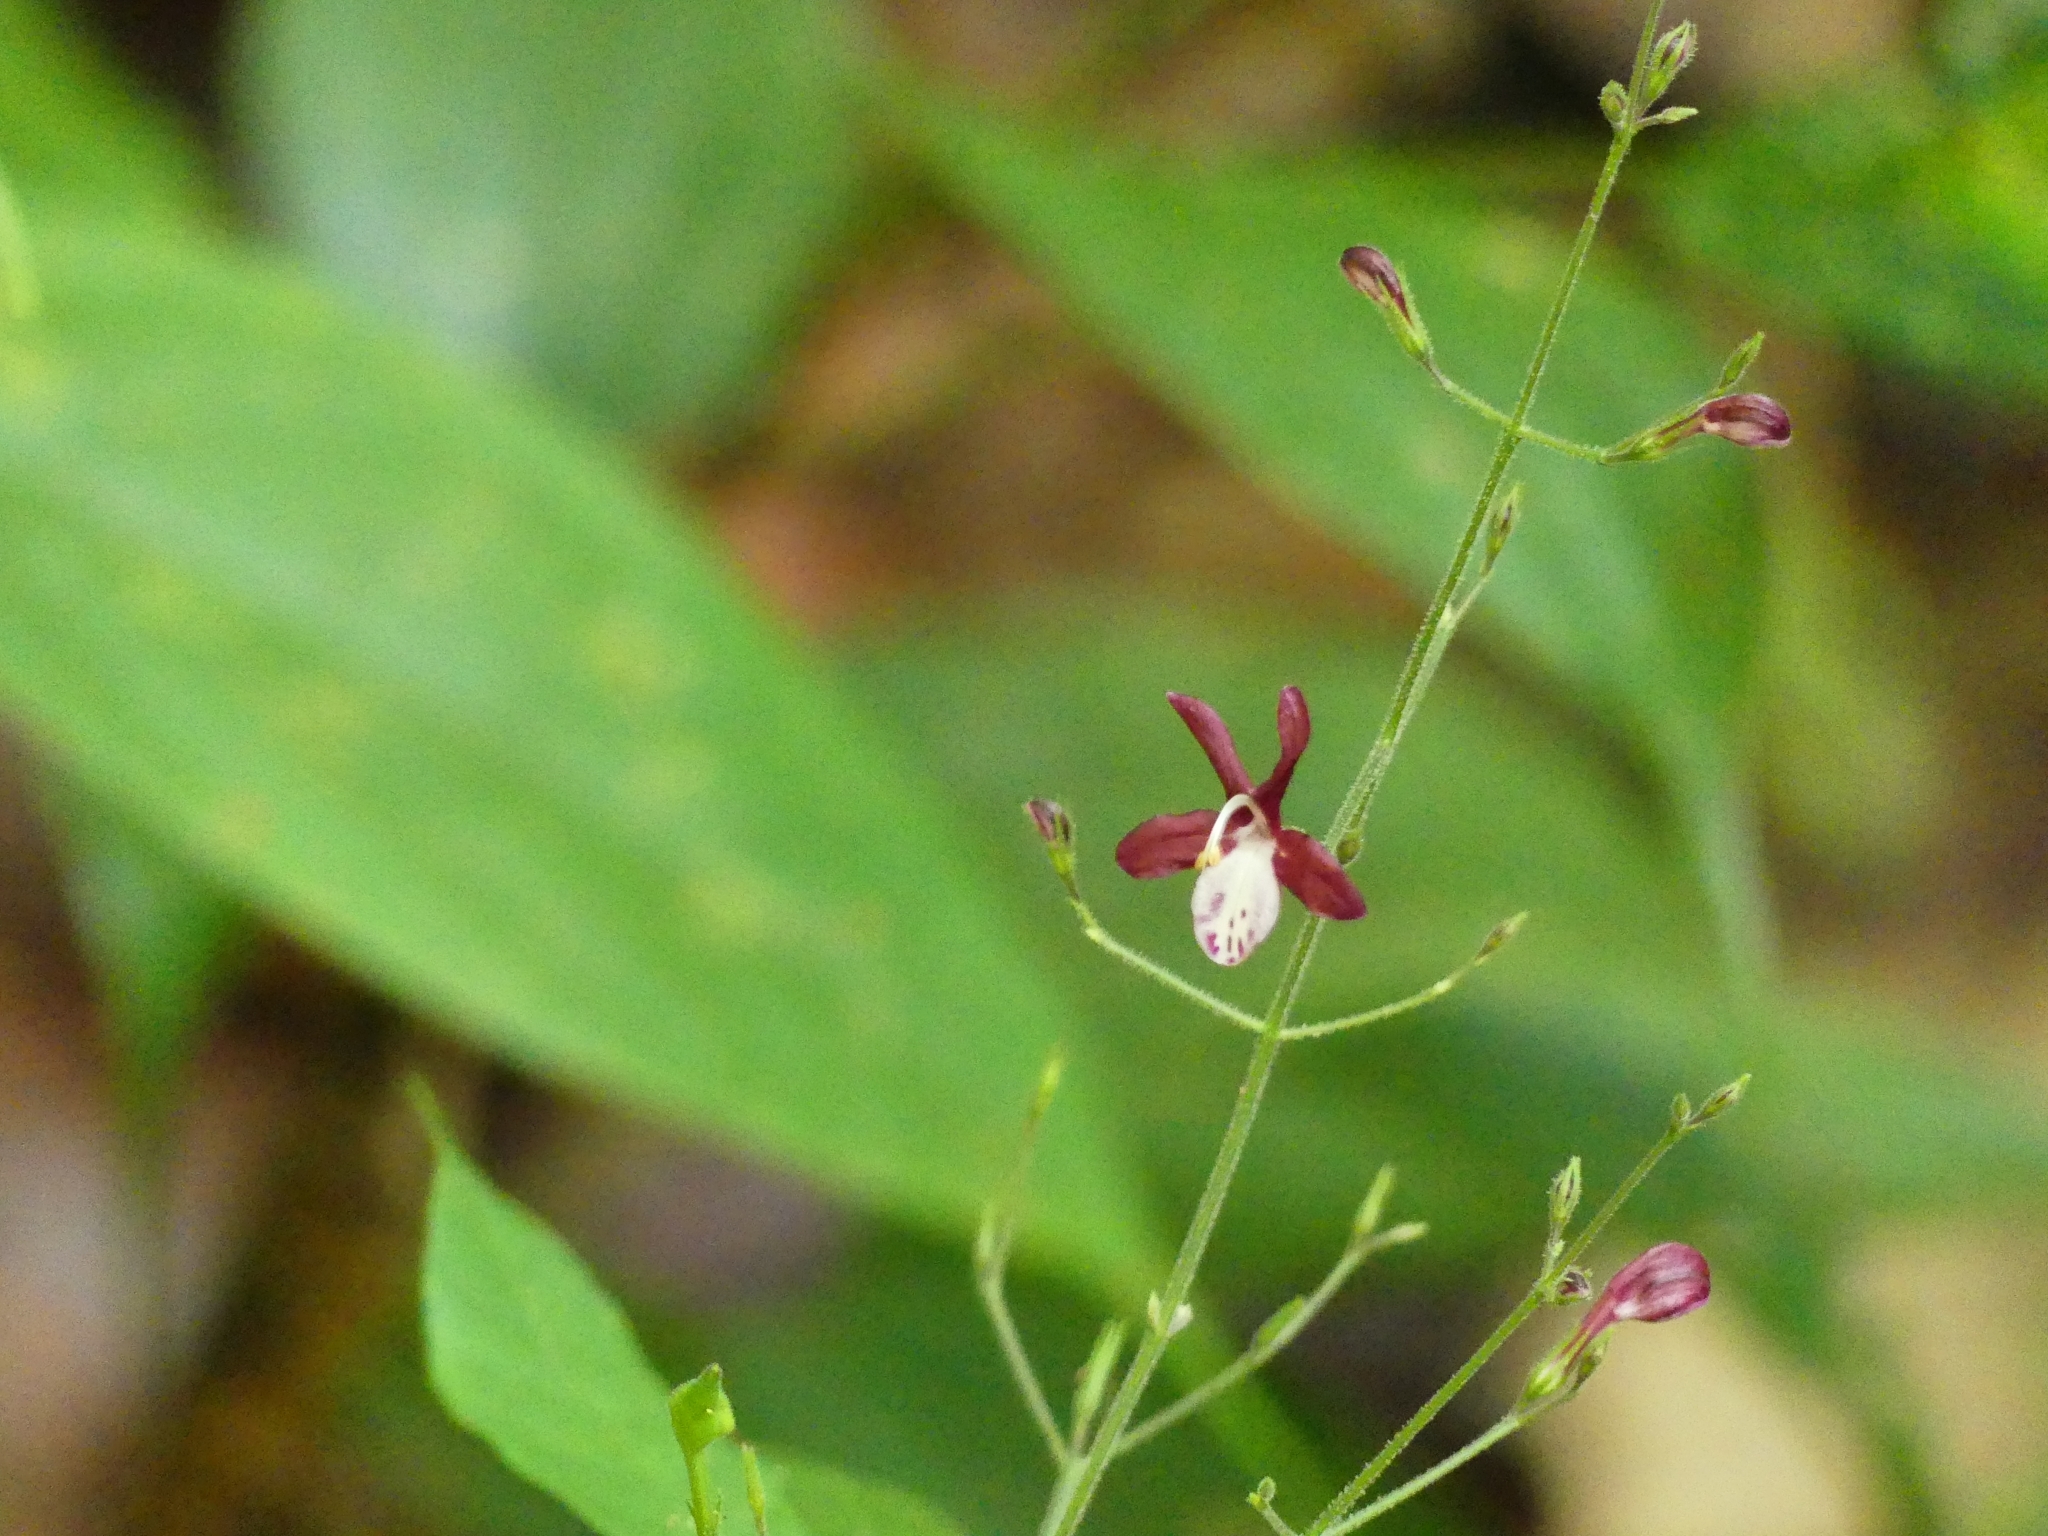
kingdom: Plantae
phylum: Tracheophyta
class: Magnoliopsida
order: Lamiales
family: Acanthaceae
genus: Pulchranthus
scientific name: Pulchranthus congestus
